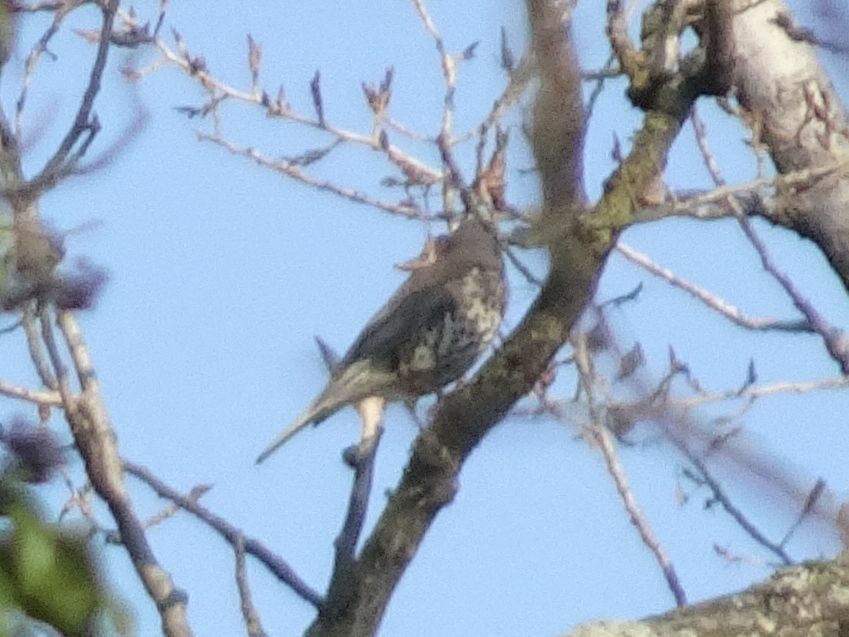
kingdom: Animalia
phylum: Chordata
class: Aves
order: Passeriformes
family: Turdidae
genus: Turdus
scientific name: Turdus viscivorus
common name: Mistle thrush
